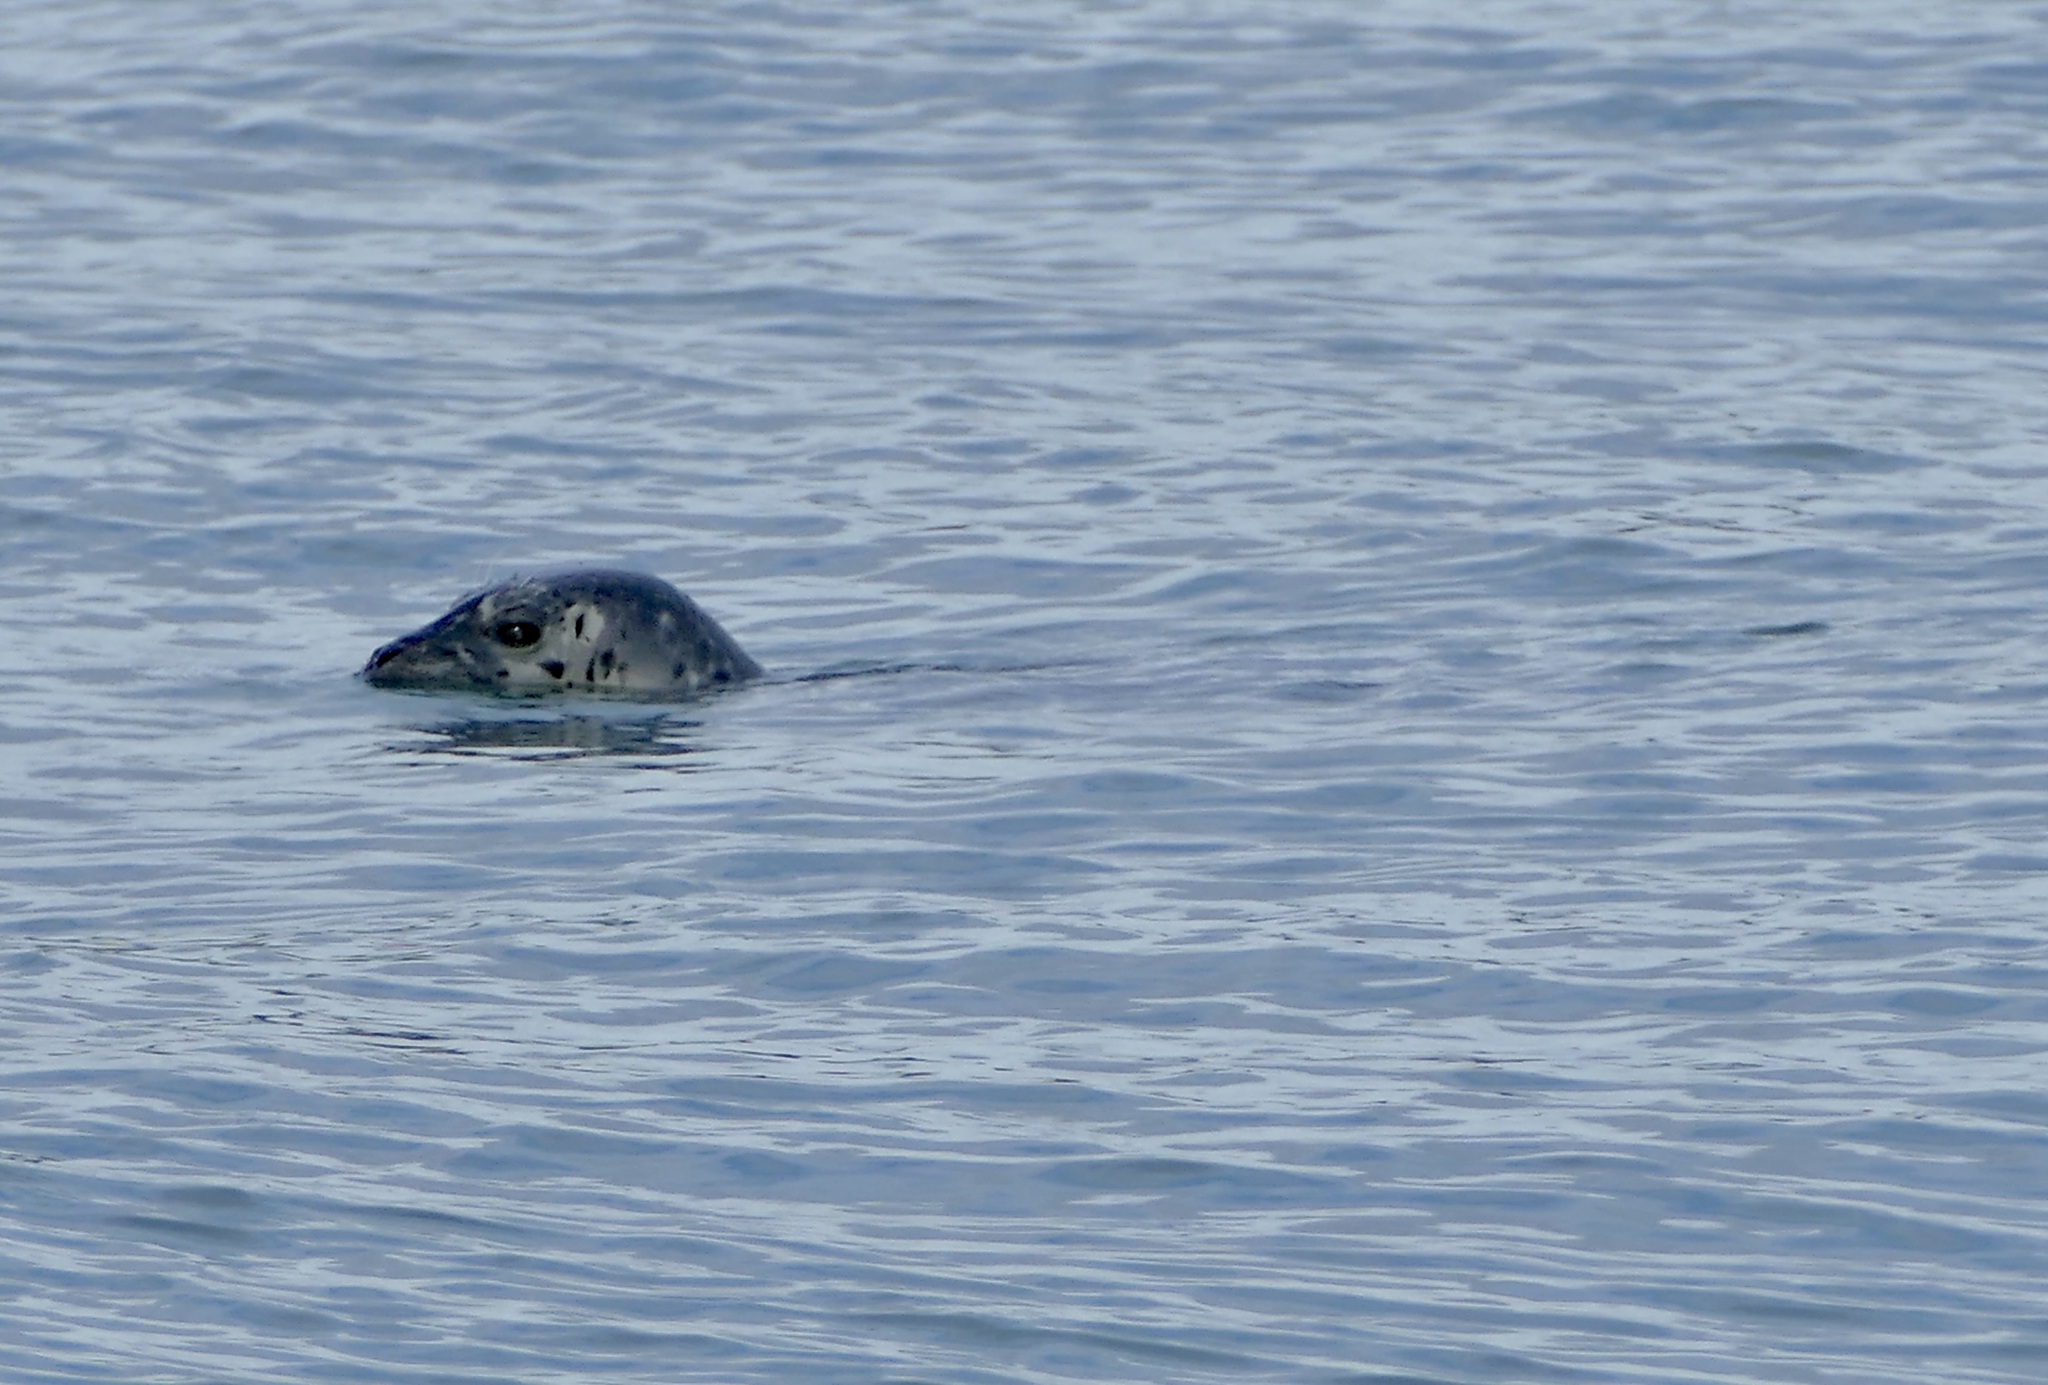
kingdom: Animalia
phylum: Chordata
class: Mammalia
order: Carnivora
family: Phocidae
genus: Phoca
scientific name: Phoca vitulina
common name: Harbor seal
